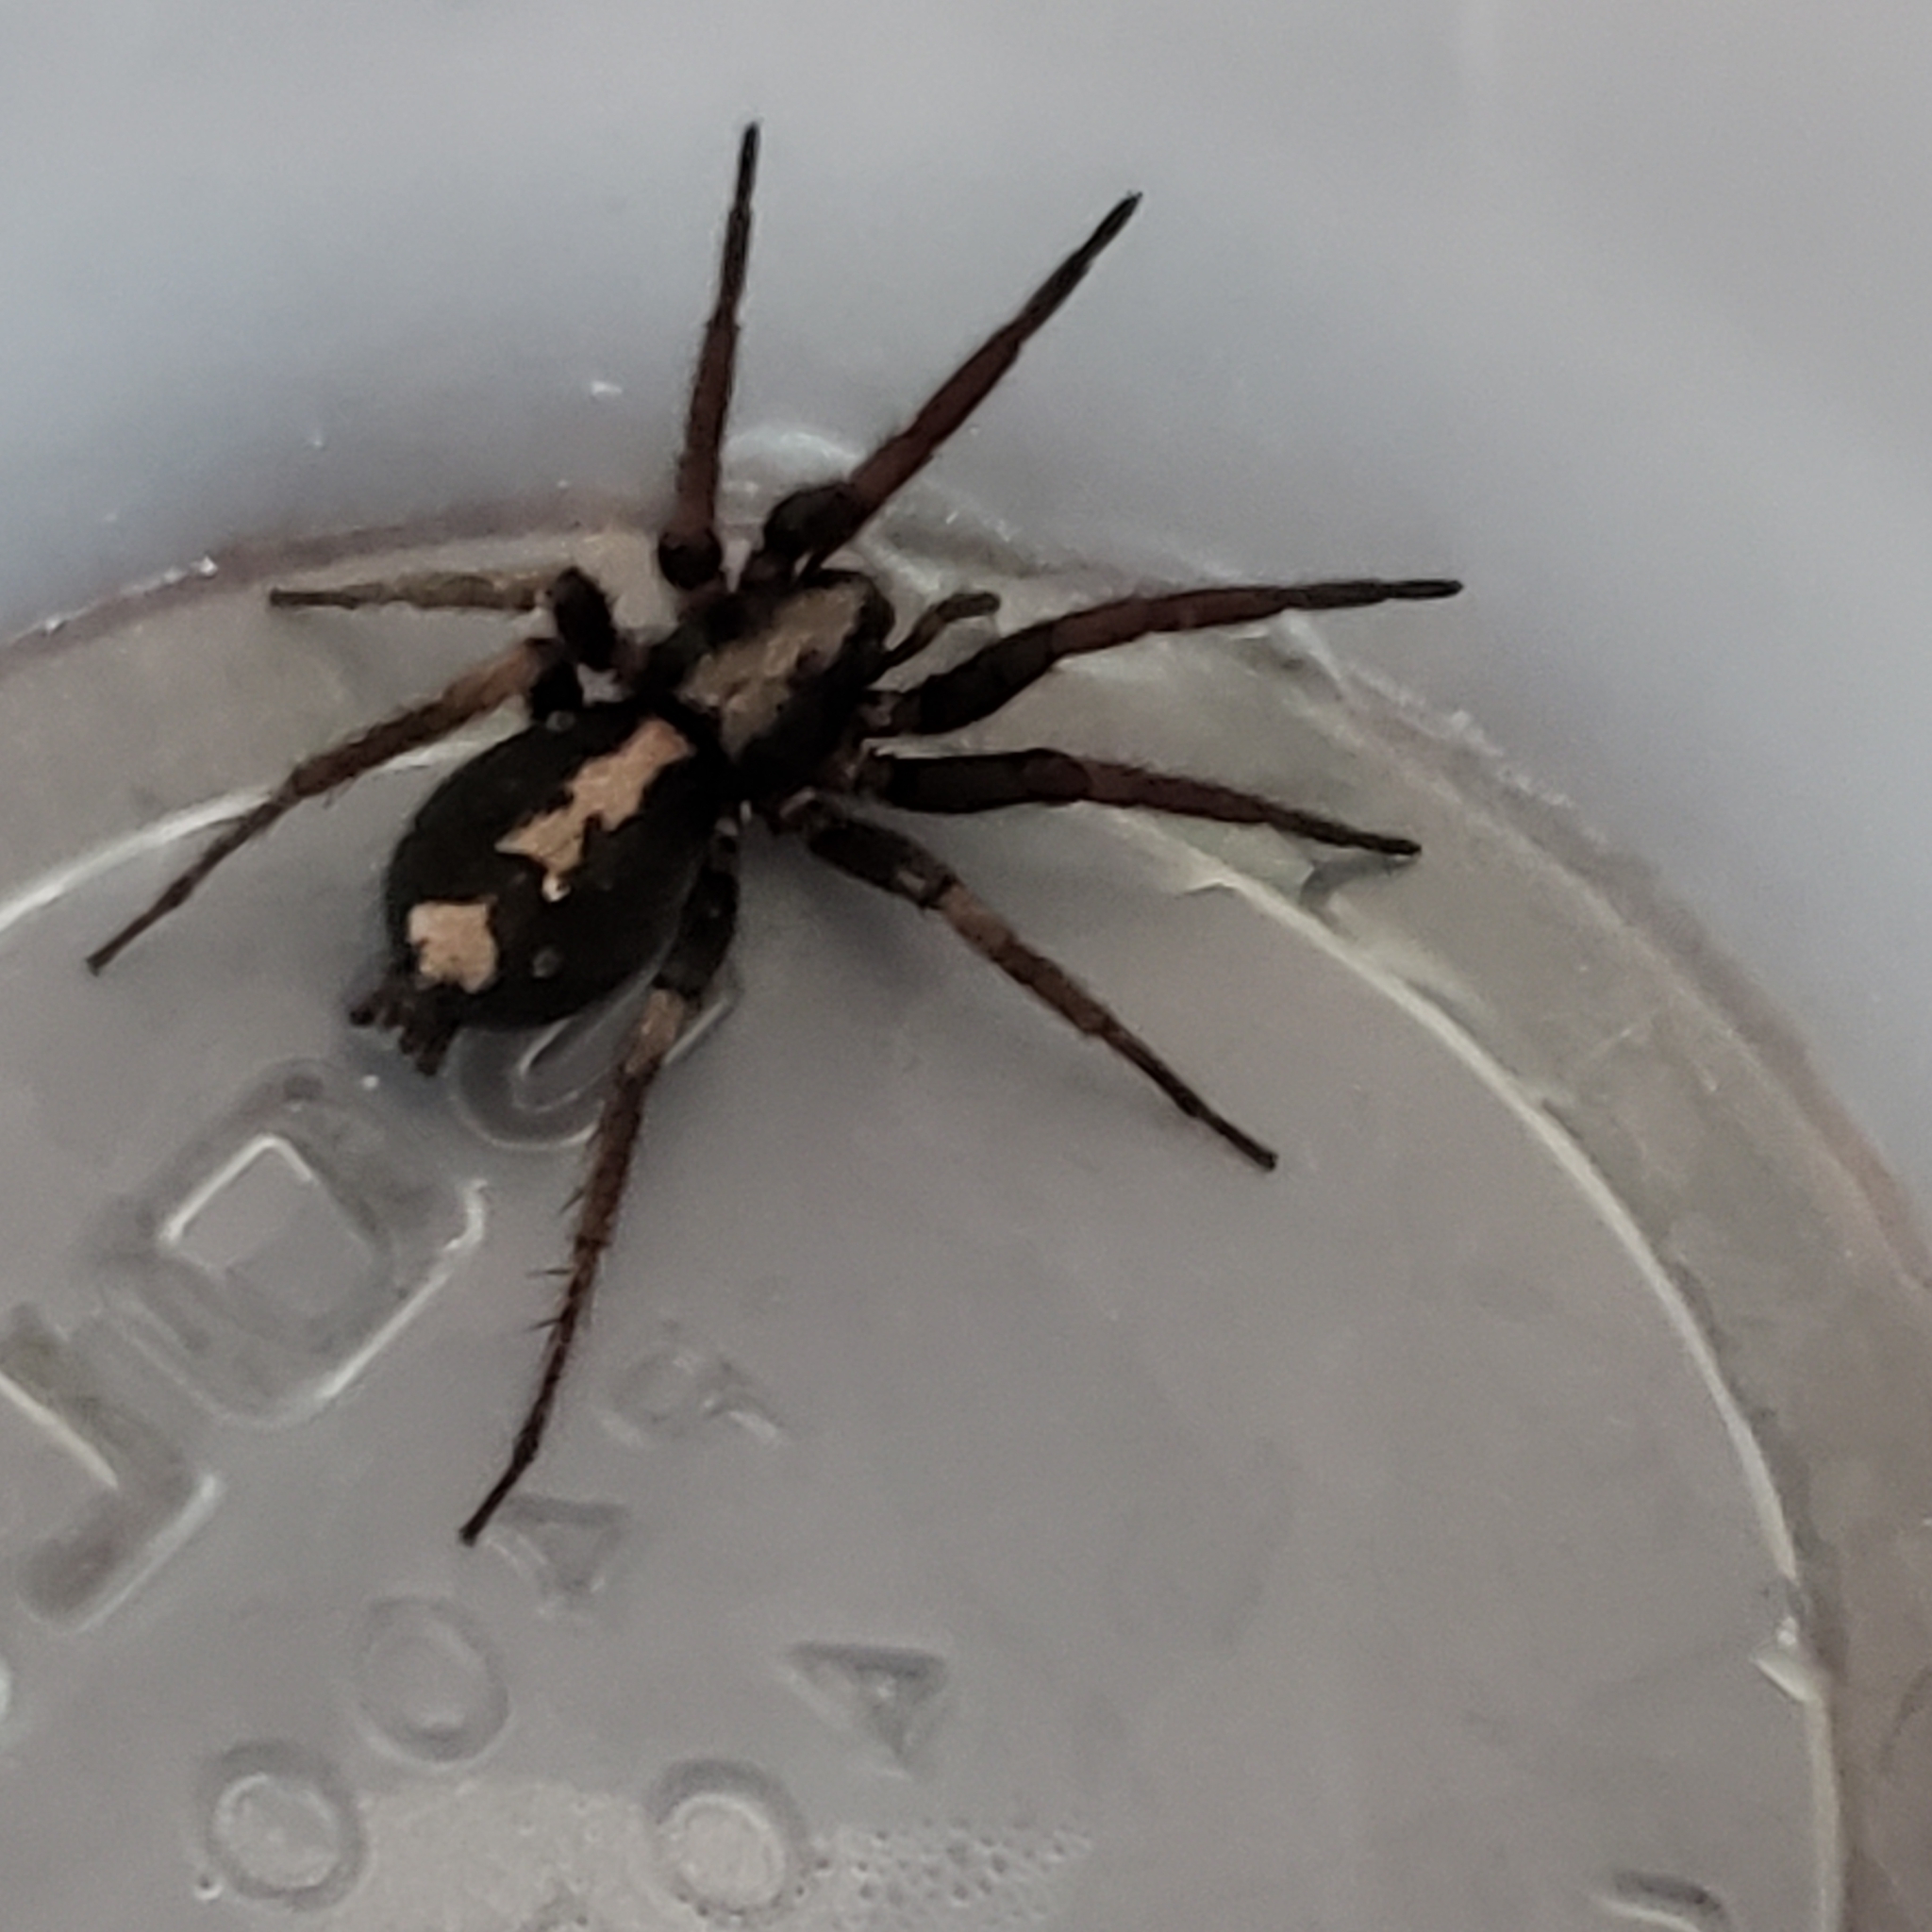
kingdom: Animalia
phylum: Arthropoda
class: Arachnida
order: Araneae
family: Gnaphosidae
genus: Herpyllus
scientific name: Herpyllus ecclesiasticus
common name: Eastern parson spider
